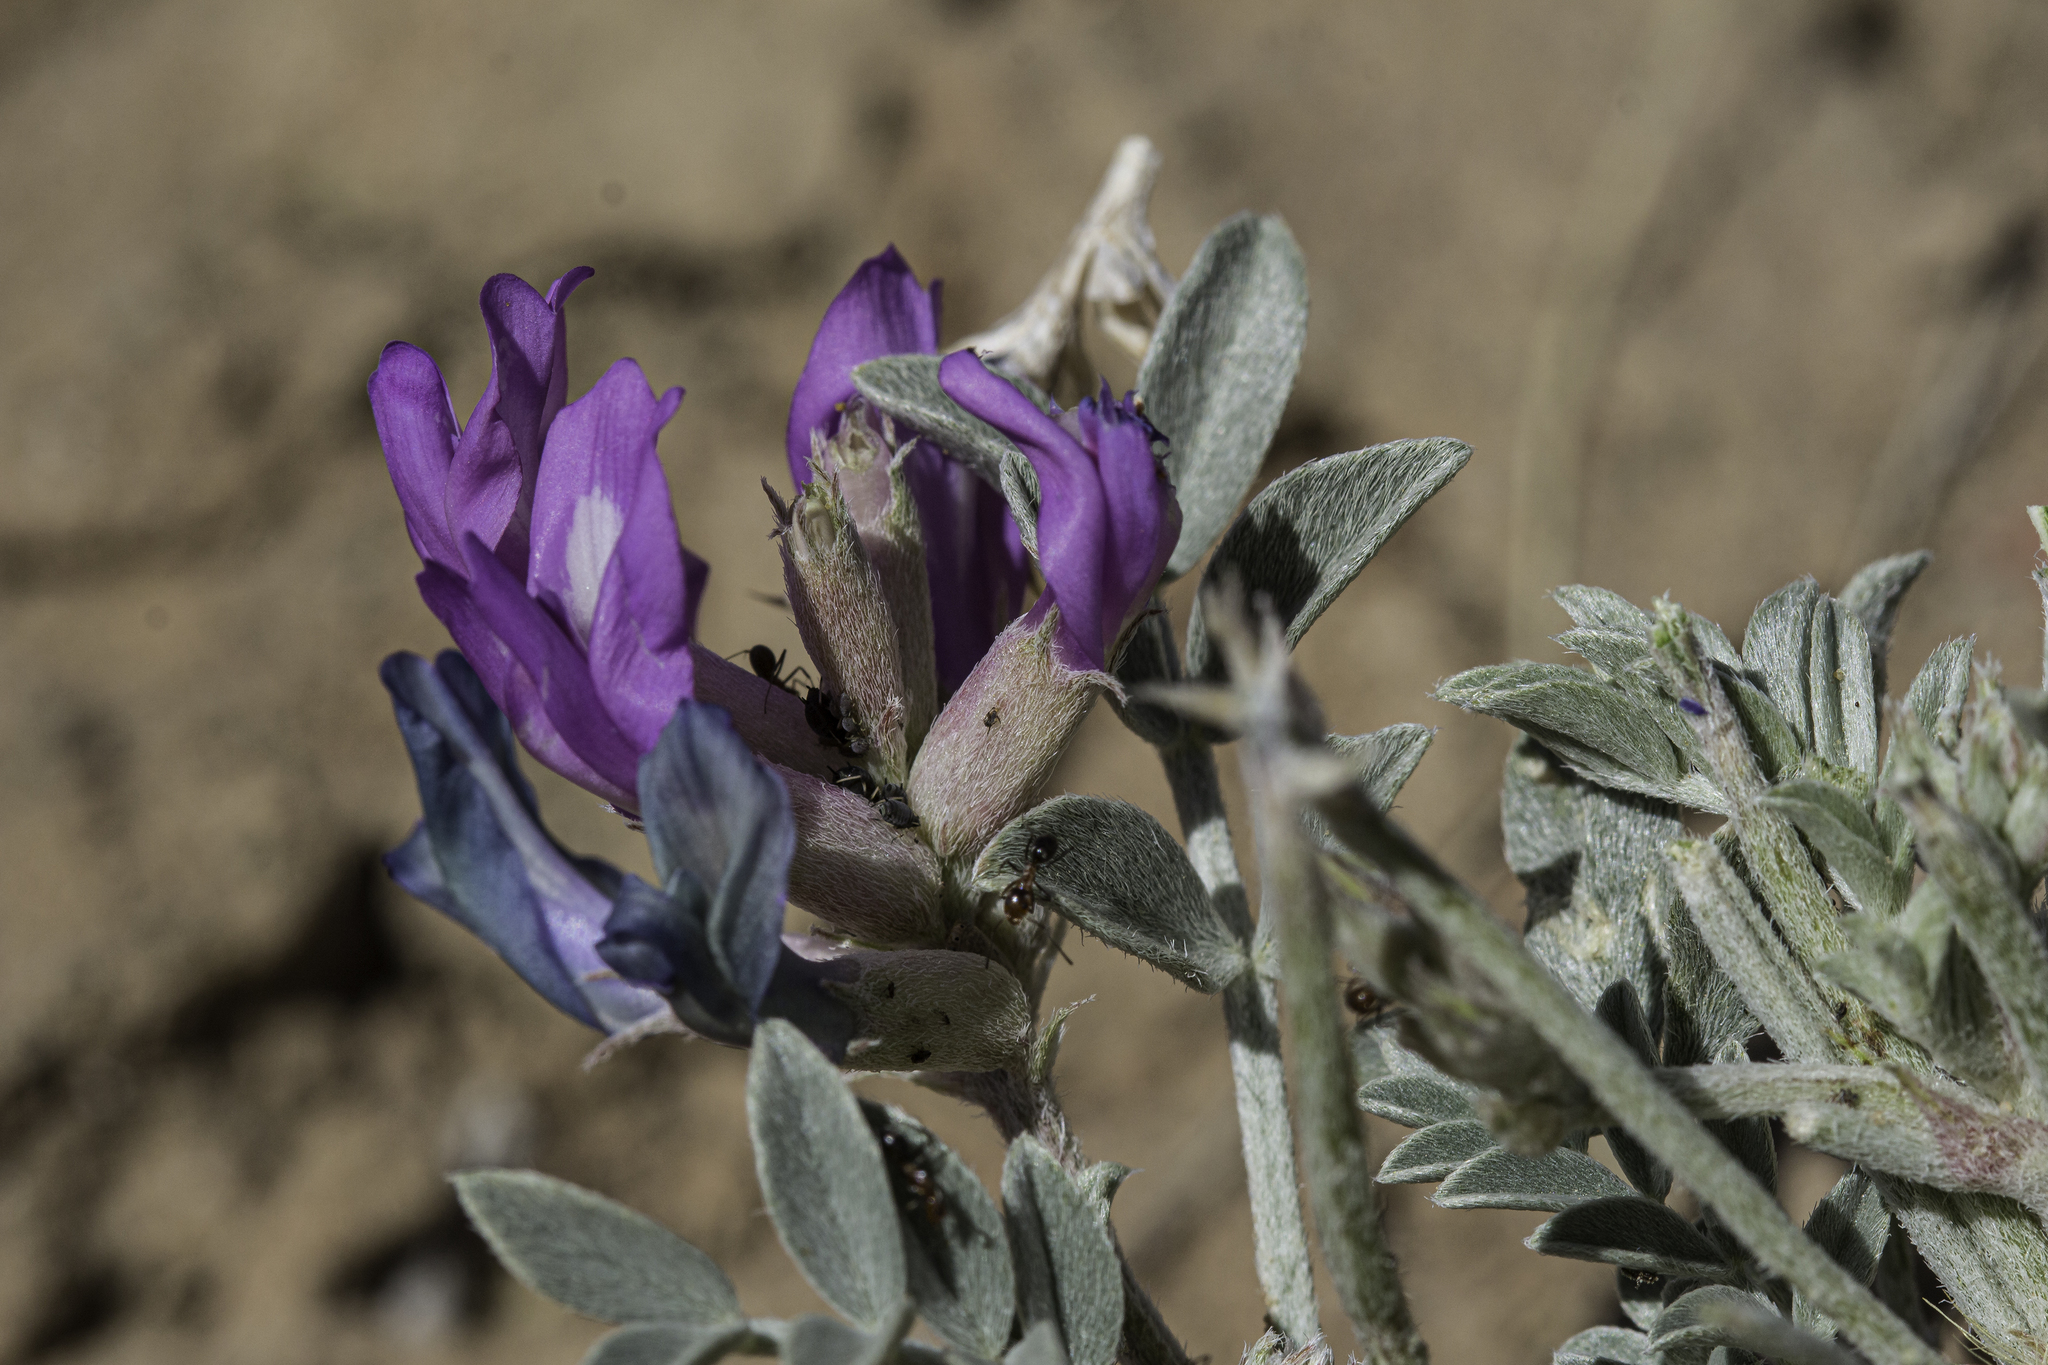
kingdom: Plantae
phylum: Tracheophyta
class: Magnoliopsida
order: Fabales
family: Fabaceae
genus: Astragalus
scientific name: Astragalus amphioxys
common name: Crescent milk-vetch
